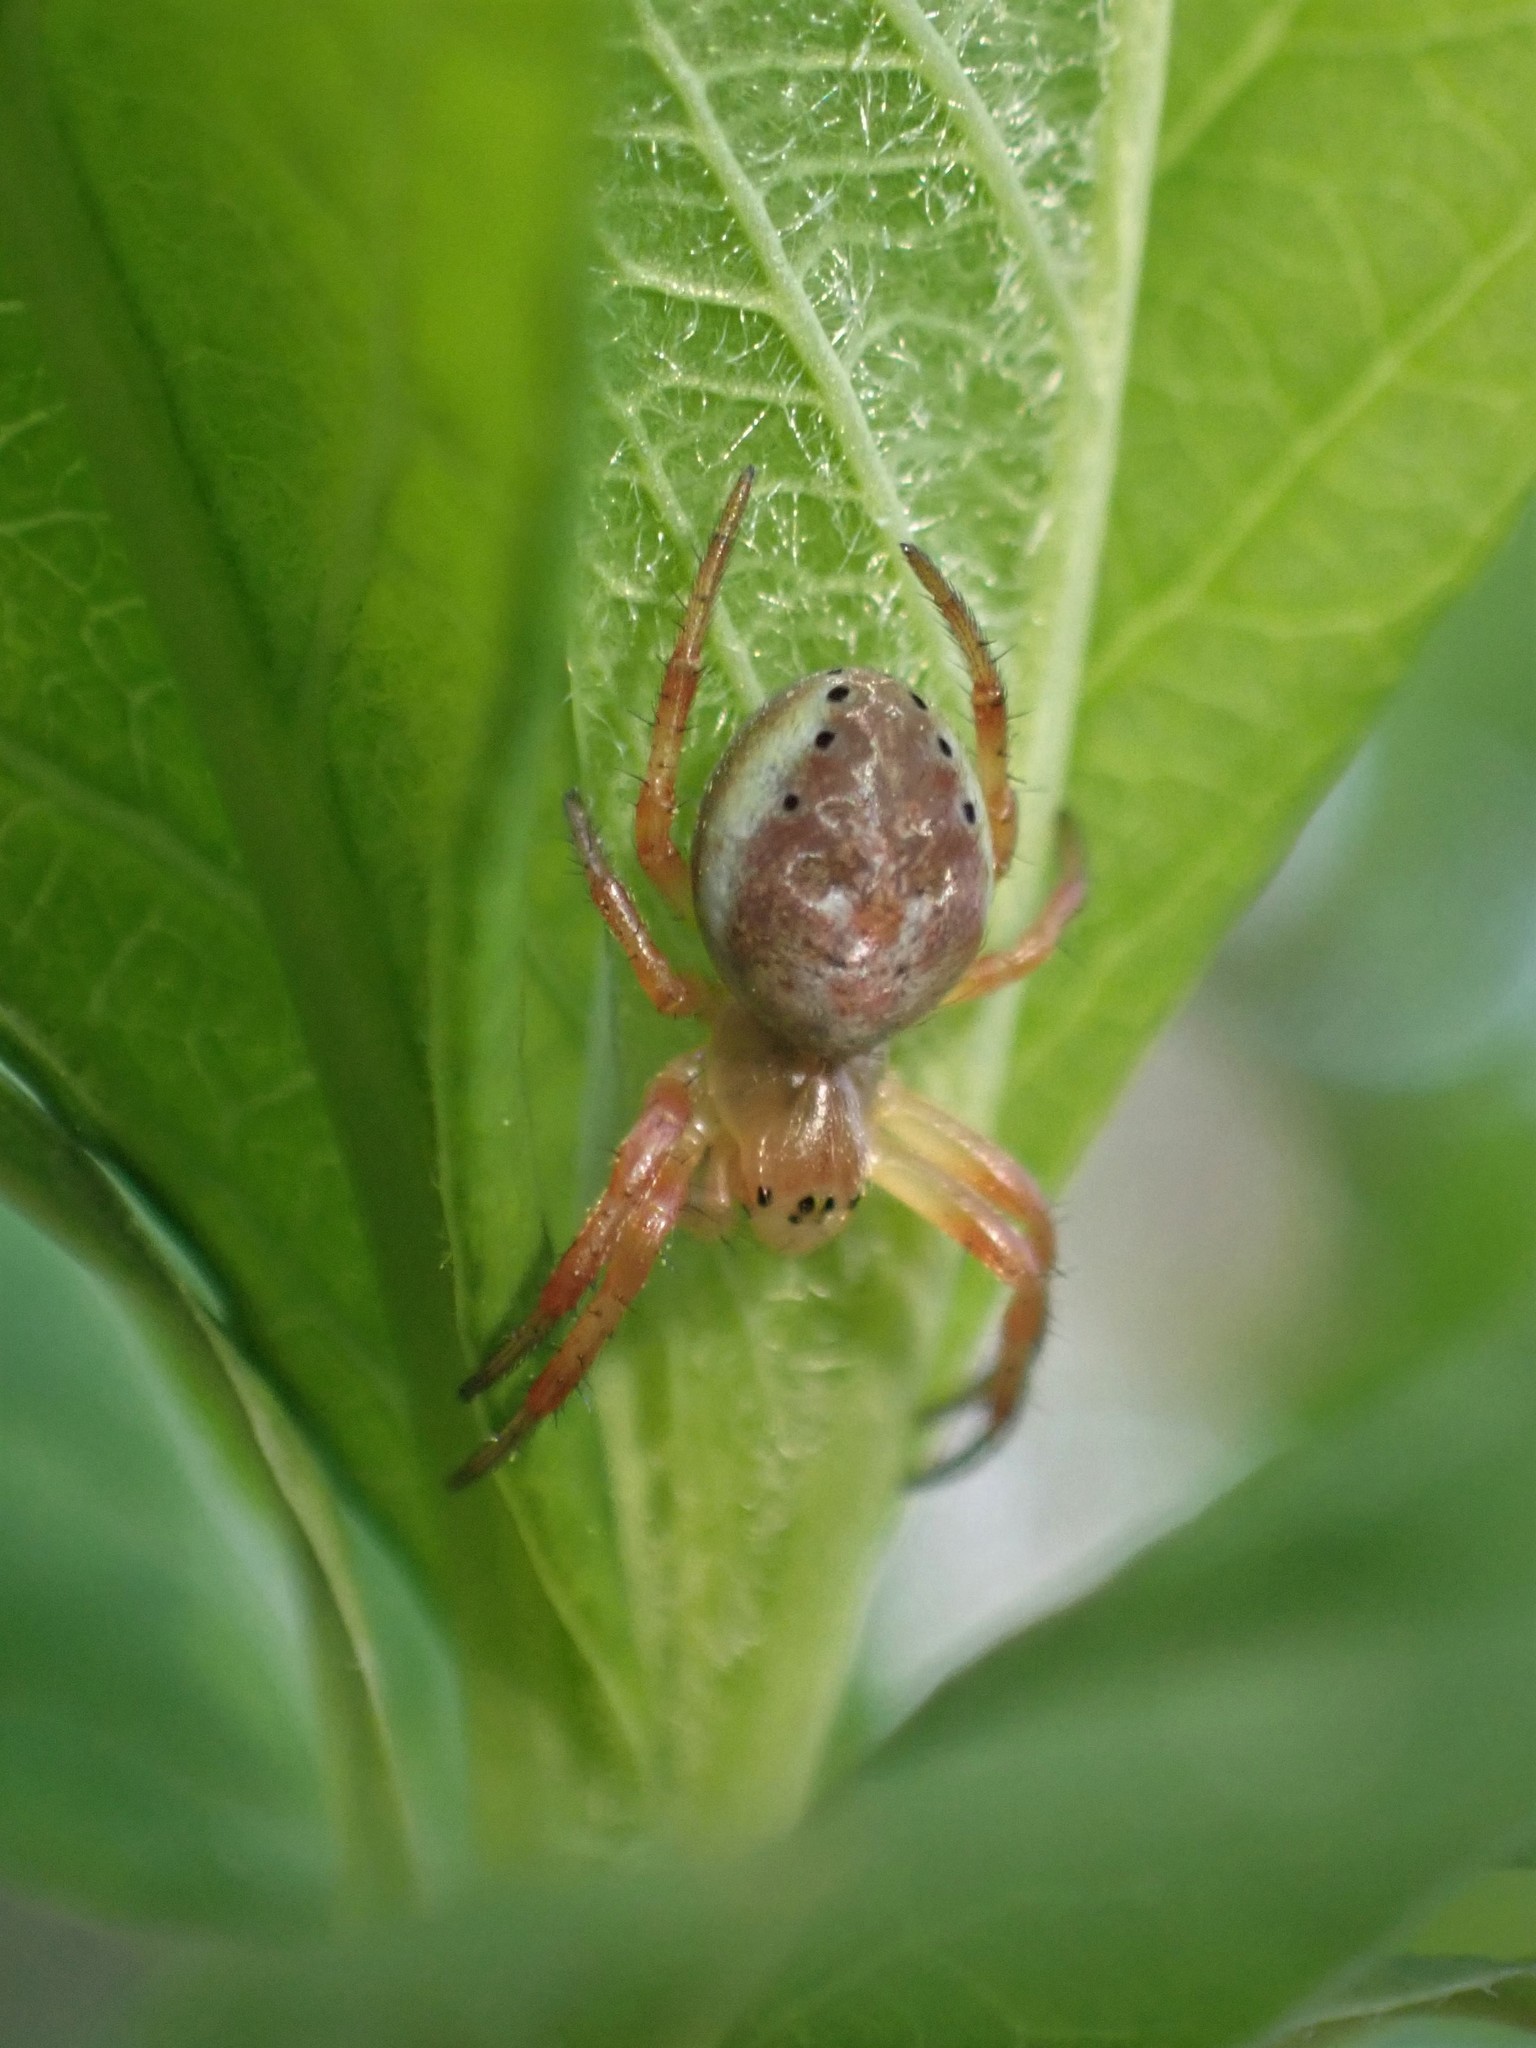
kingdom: Animalia
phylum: Arthropoda
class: Arachnida
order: Araneae
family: Araneidae
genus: Araniella
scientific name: Araniella displicata
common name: Sixspotted orb weaver
